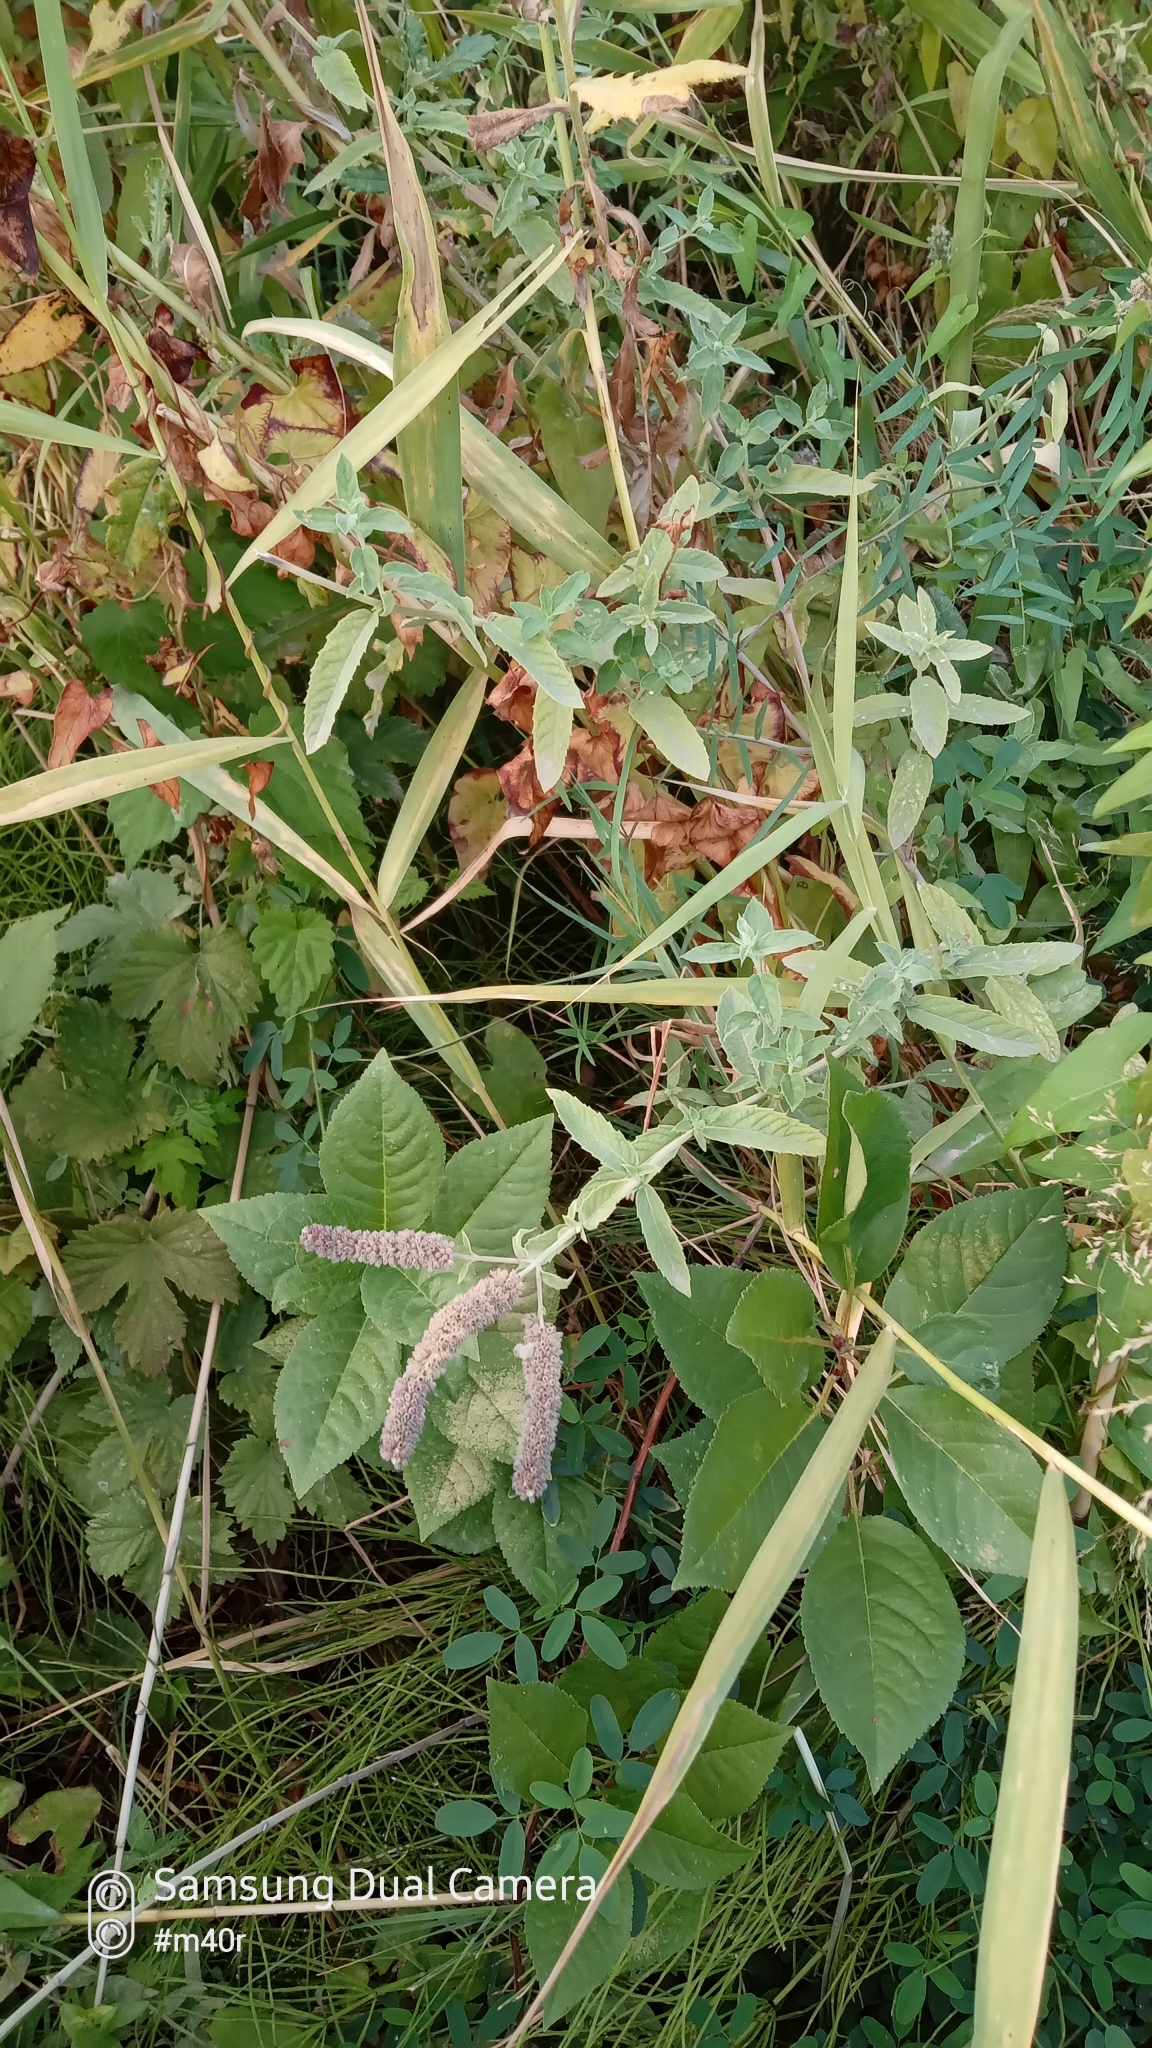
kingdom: Plantae
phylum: Tracheophyta
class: Magnoliopsida
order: Lamiales
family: Lamiaceae
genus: Mentha
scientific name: Mentha longifolia
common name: Horse mint
